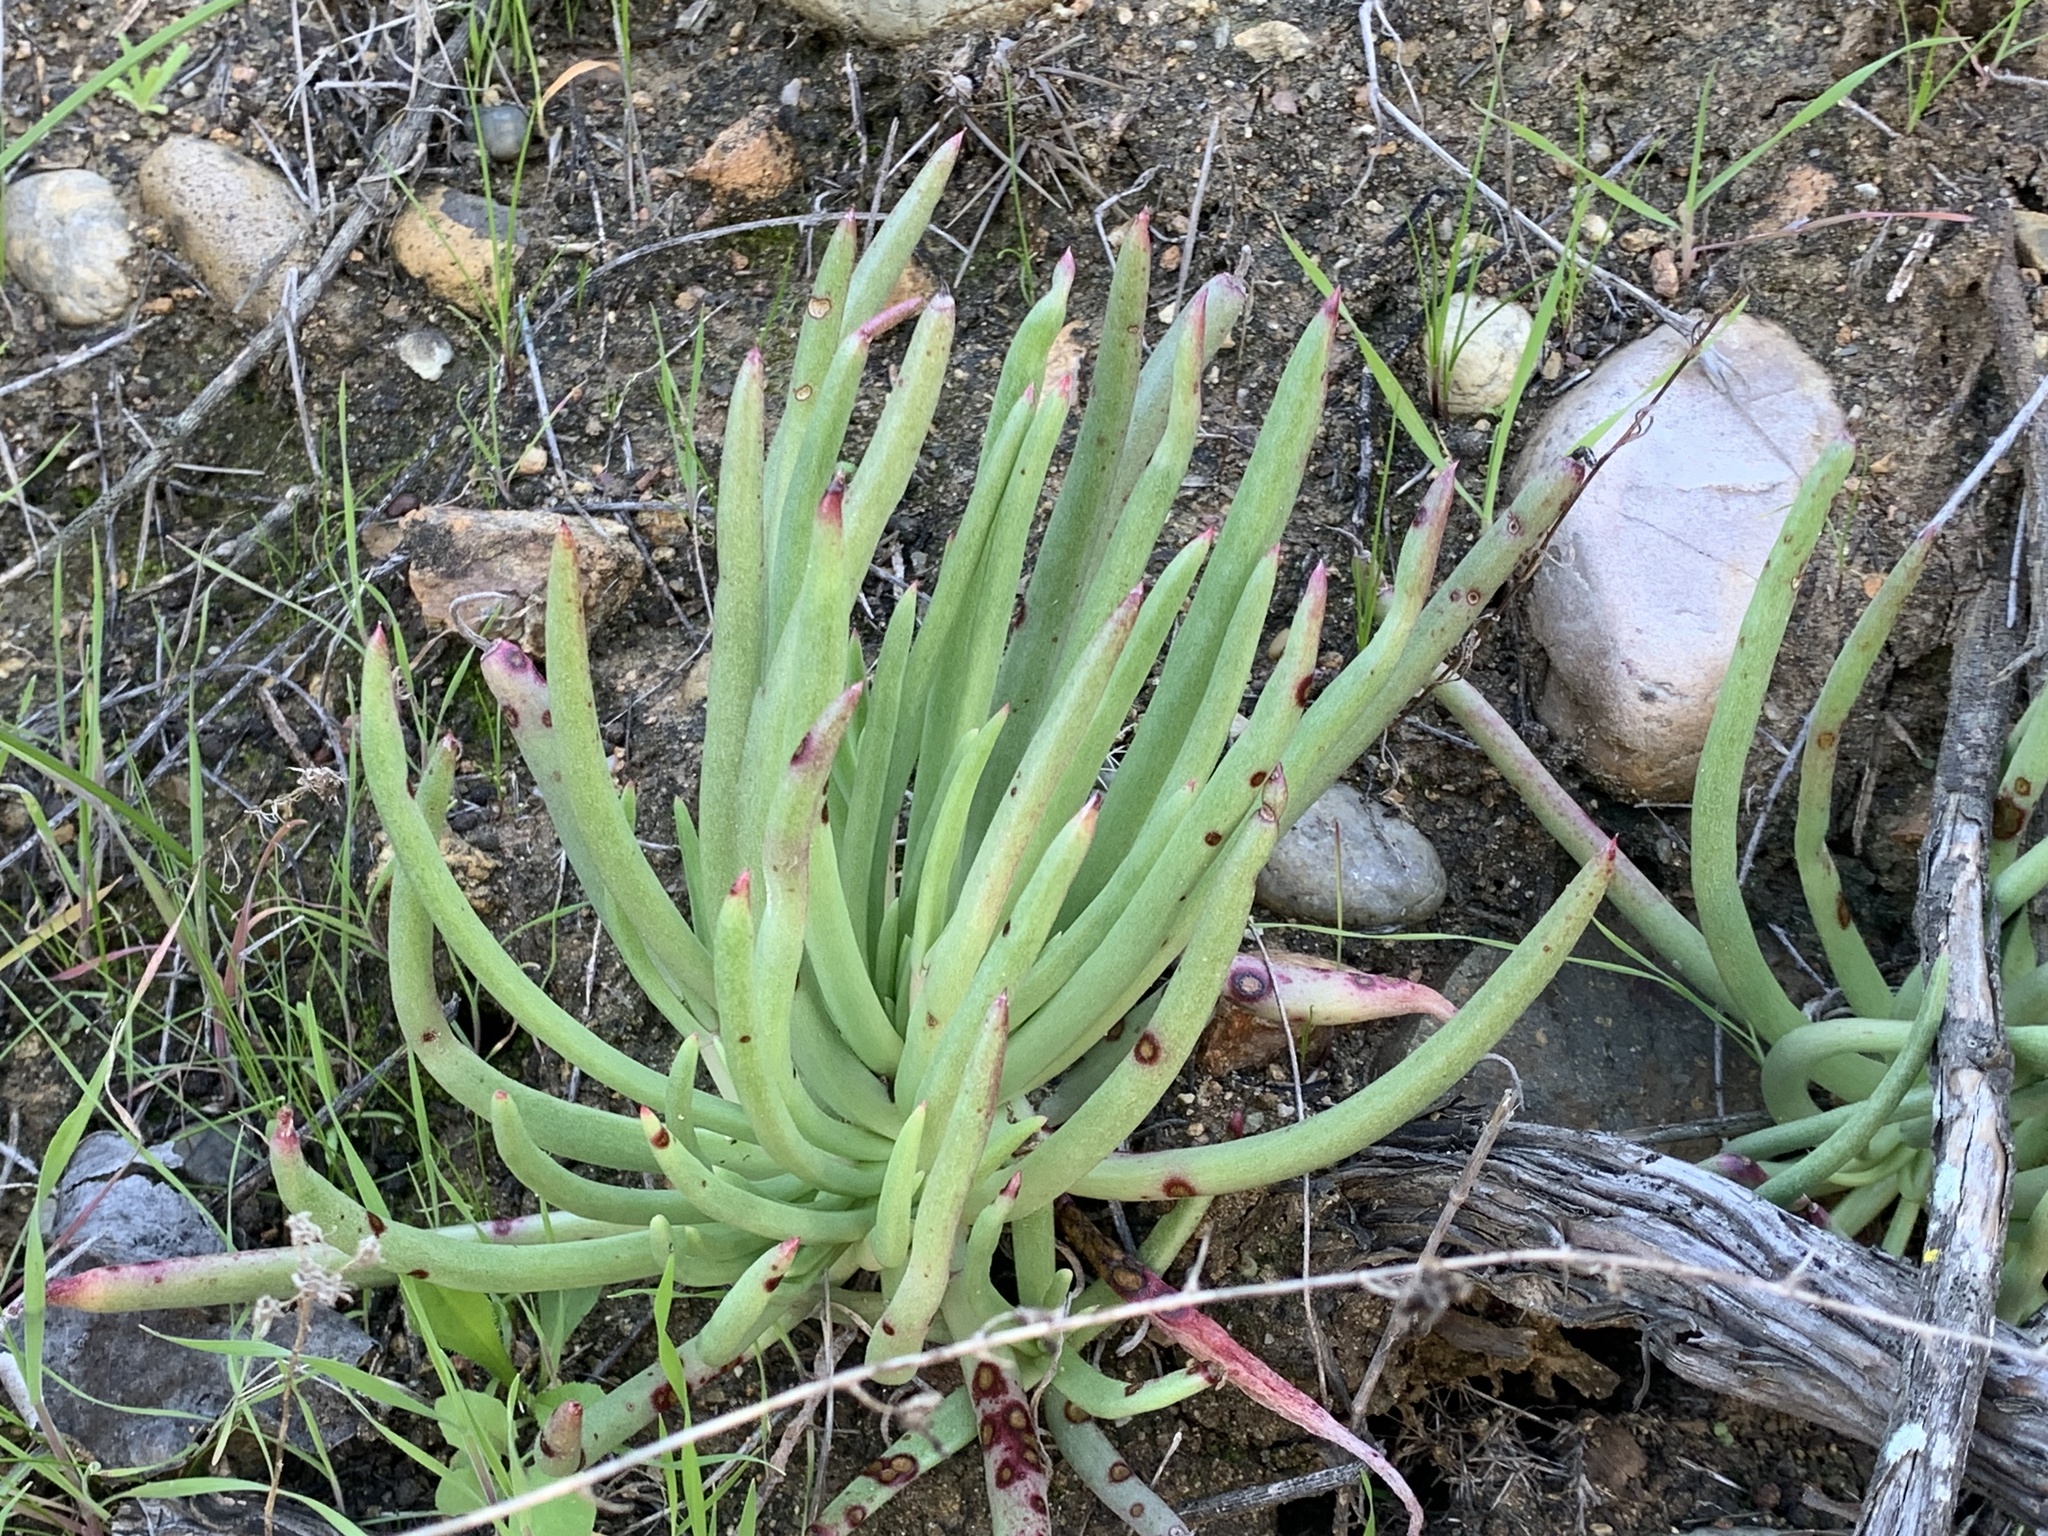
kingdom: Plantae
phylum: Tracheophyta
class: Magnoliopsida
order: Saxifragales
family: Crassulaceae
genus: Dudleya
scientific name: Dudleya edulis
